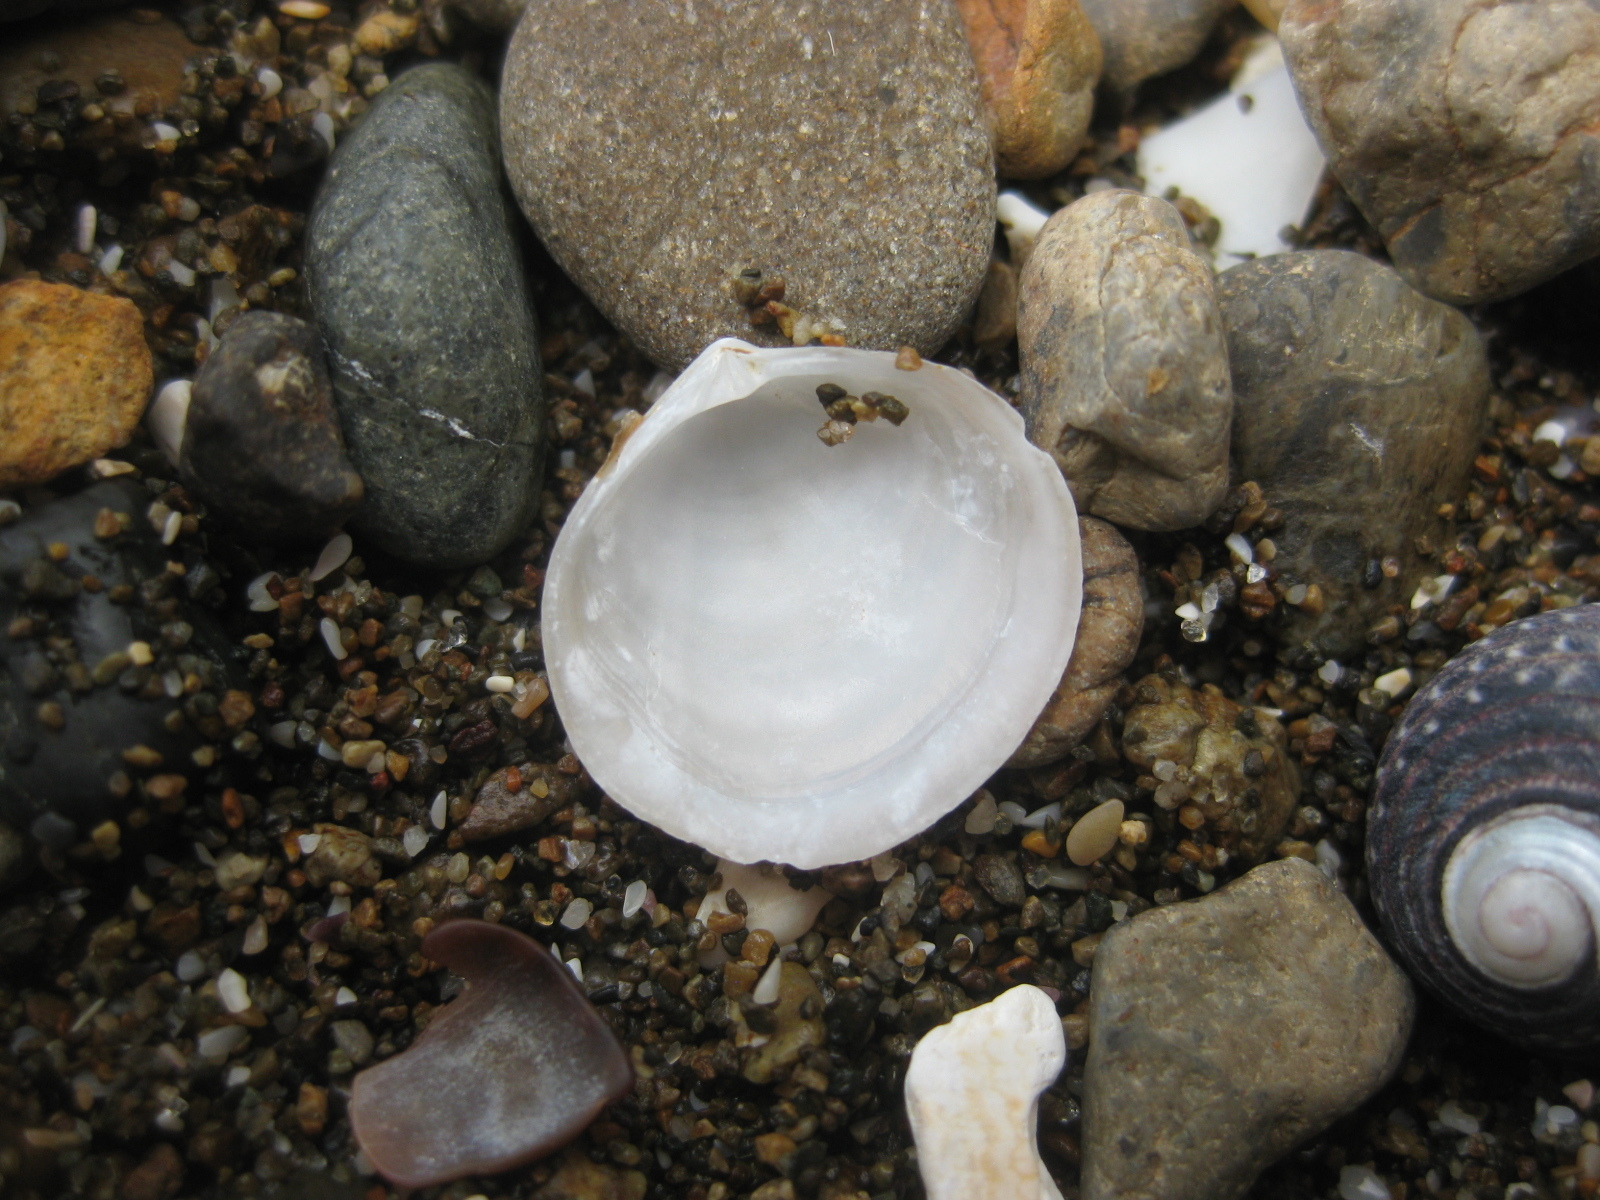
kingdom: Animalia
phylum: Mollusca
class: Bivalvia
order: Venerida
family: Ungulinidae
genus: Zemysia
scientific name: Zemysia zelandica
